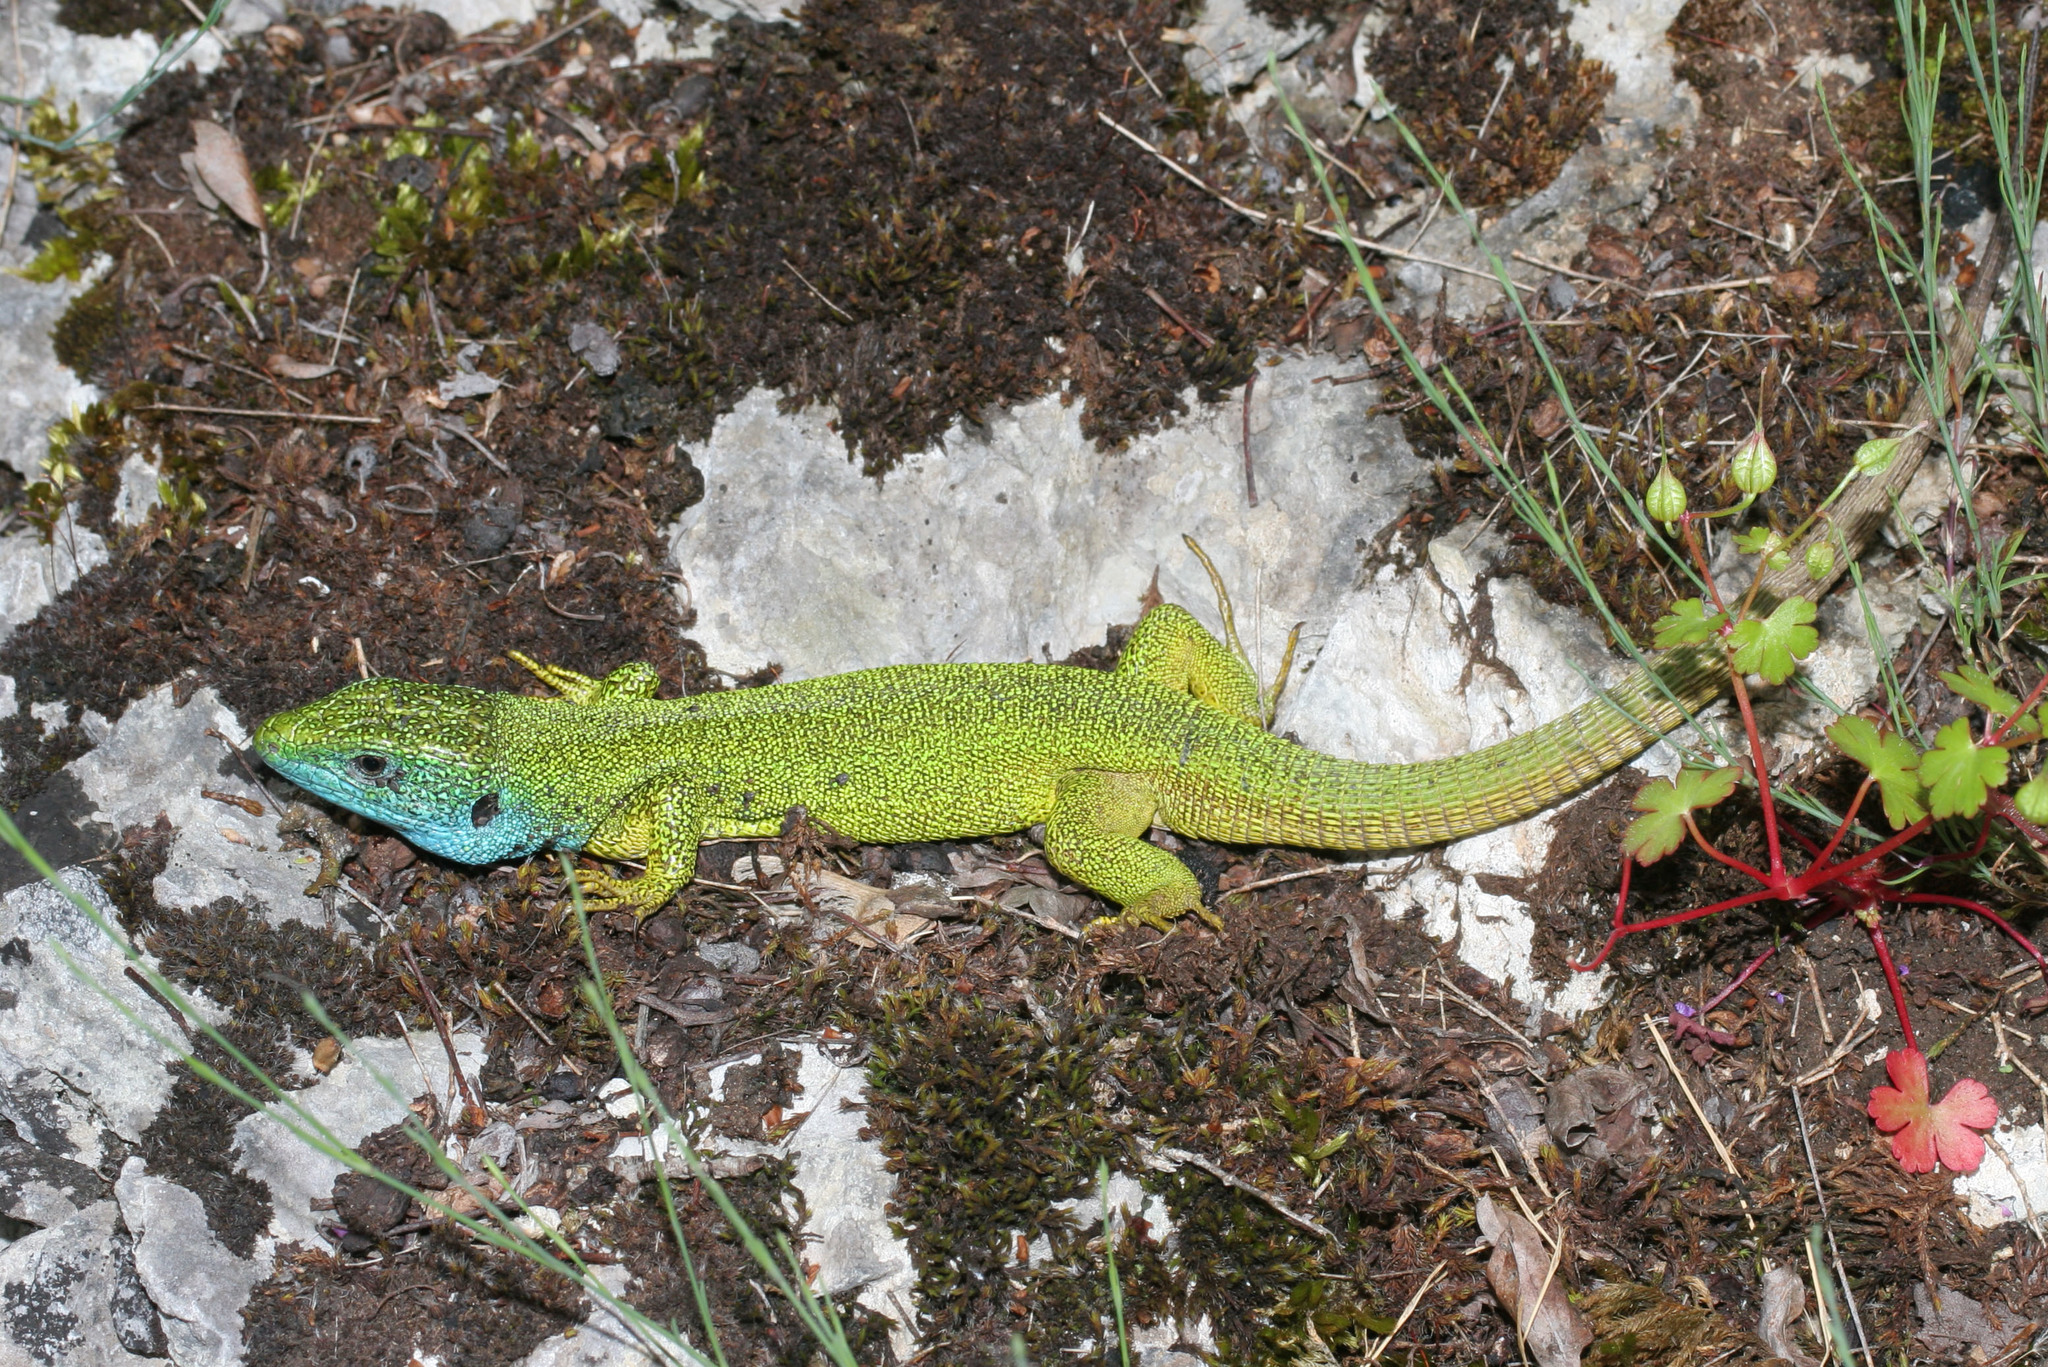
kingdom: Animalia
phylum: Chordata
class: Squamata
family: Lacertidae
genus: Lacerta
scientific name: Lacerta viridis
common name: European green lizard
